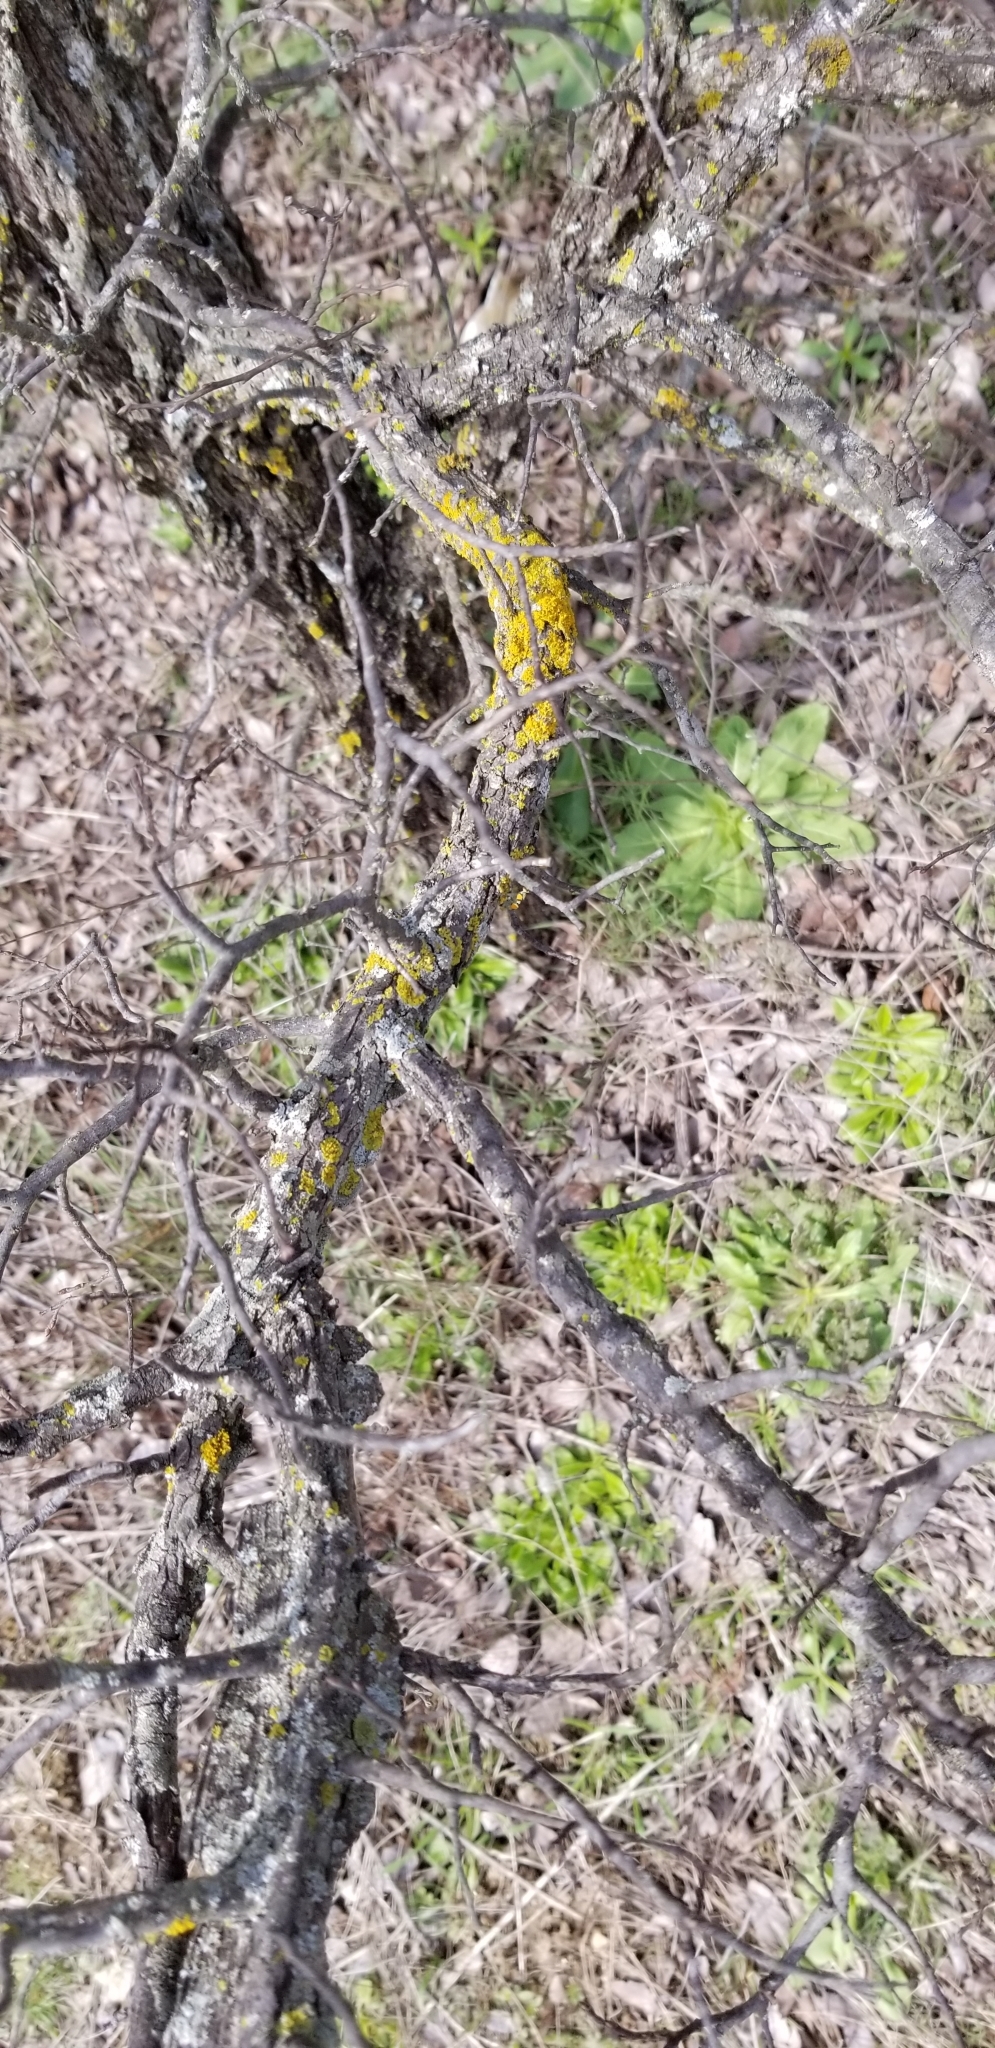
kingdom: Plantae
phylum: Tracheophyta
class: Magnoliopsida
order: Rosales
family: Ulmaceae
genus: Ulmus
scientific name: Ulmus crassifolia
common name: Basket elm
